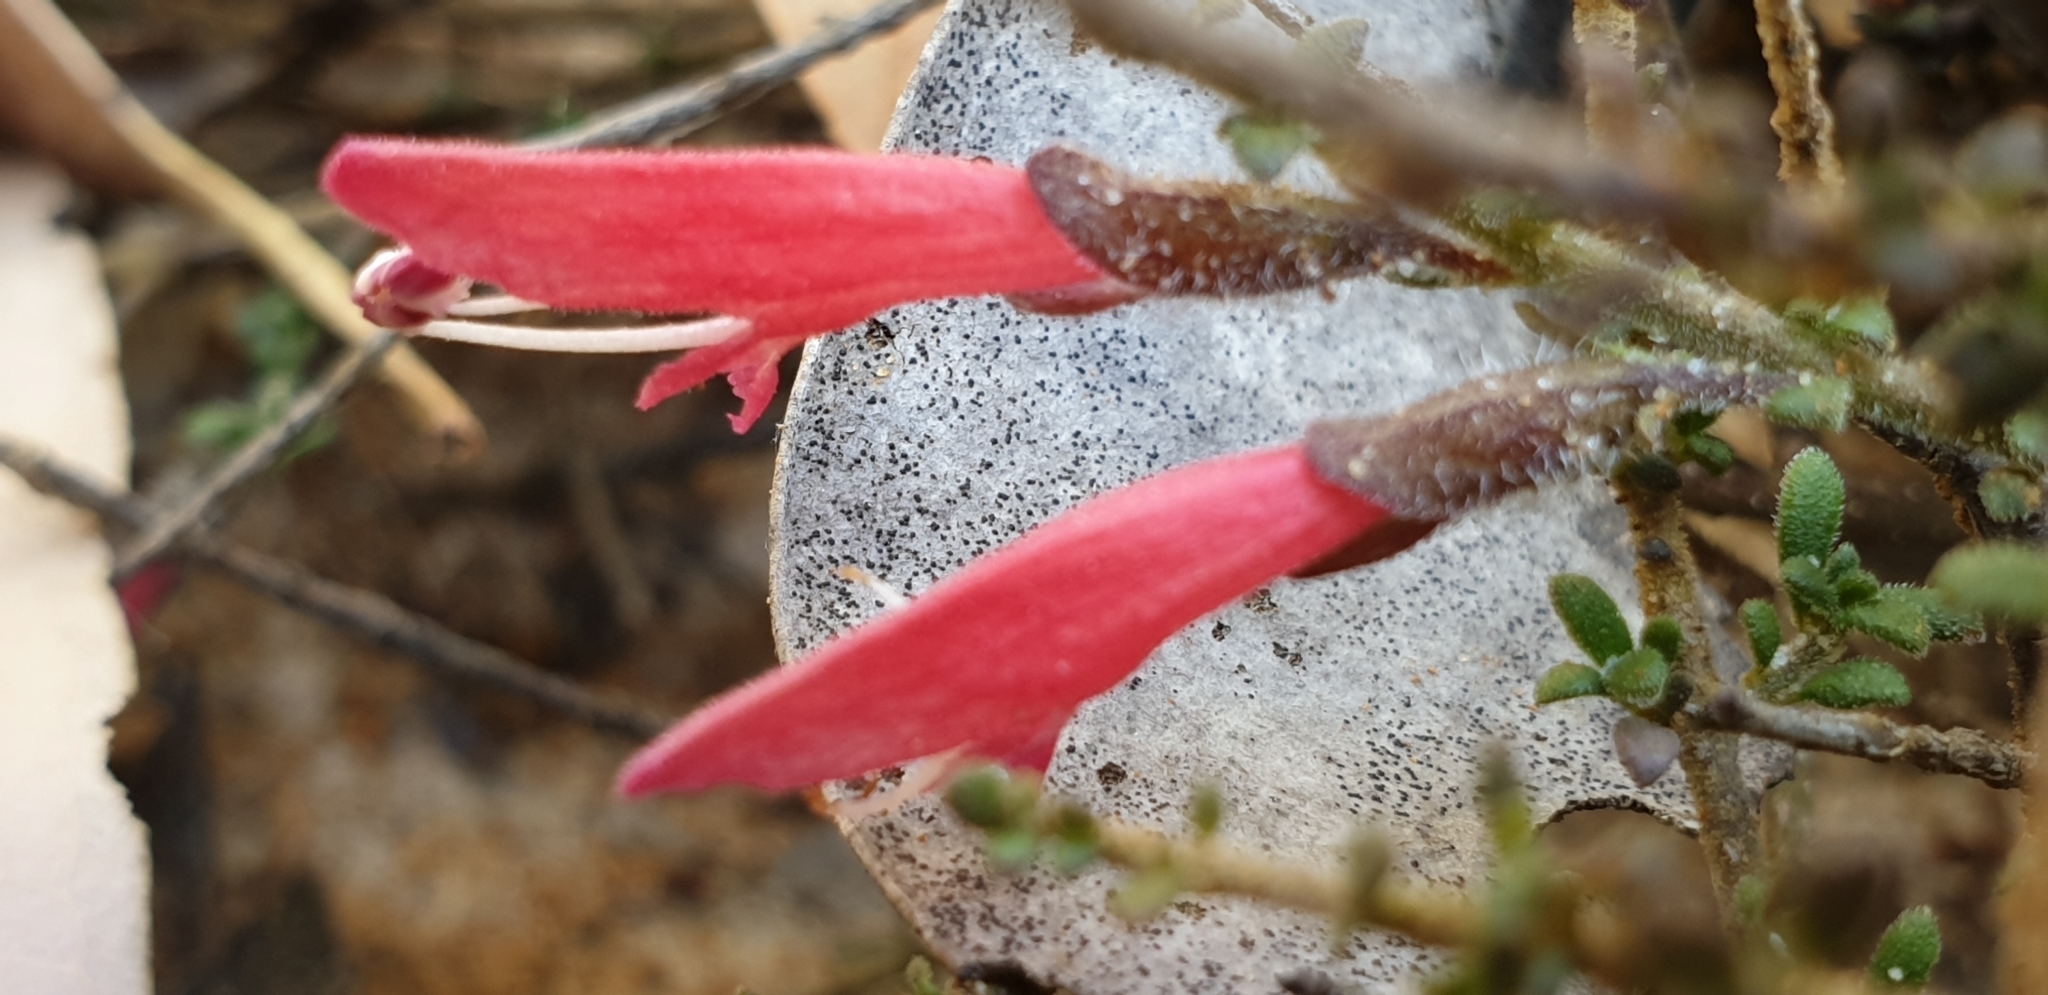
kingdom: Plantae
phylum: Tracheophyta
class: Magnoliopsida
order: Lamiales
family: Lamiaceae
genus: Prostanthera
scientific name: Prostanthera microphylla
